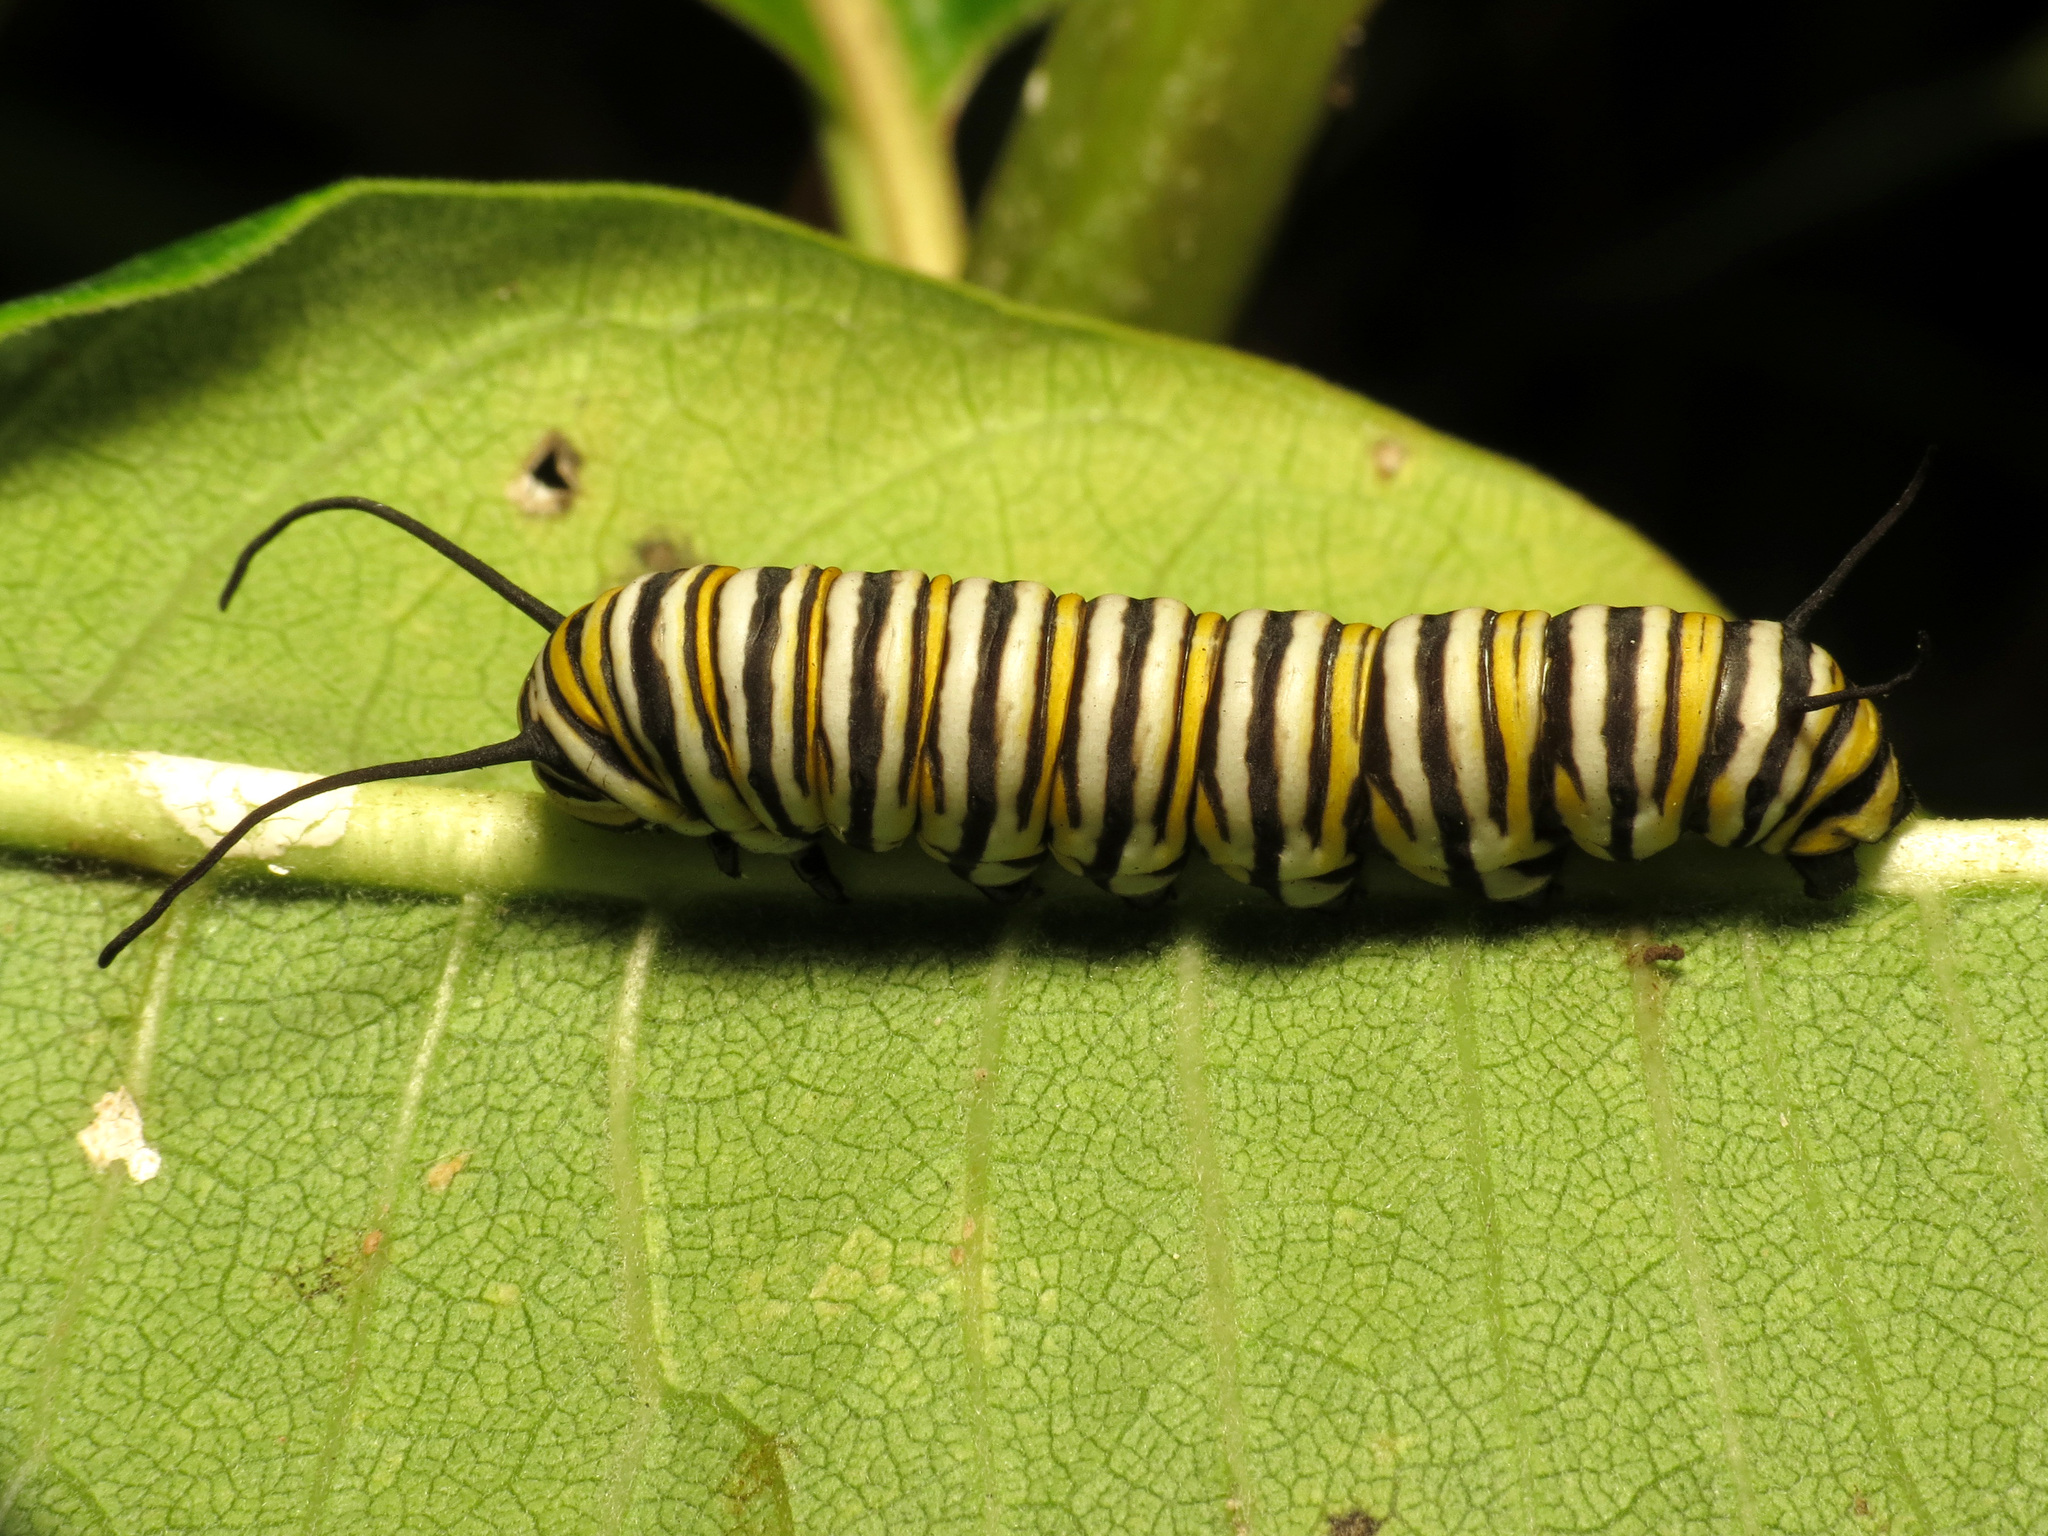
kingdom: Animalia
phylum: Arthropoda
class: Insecta
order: Lepidoptera
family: Nymphalidae
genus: Danaus
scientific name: Danaus plexippus
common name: Monarch
